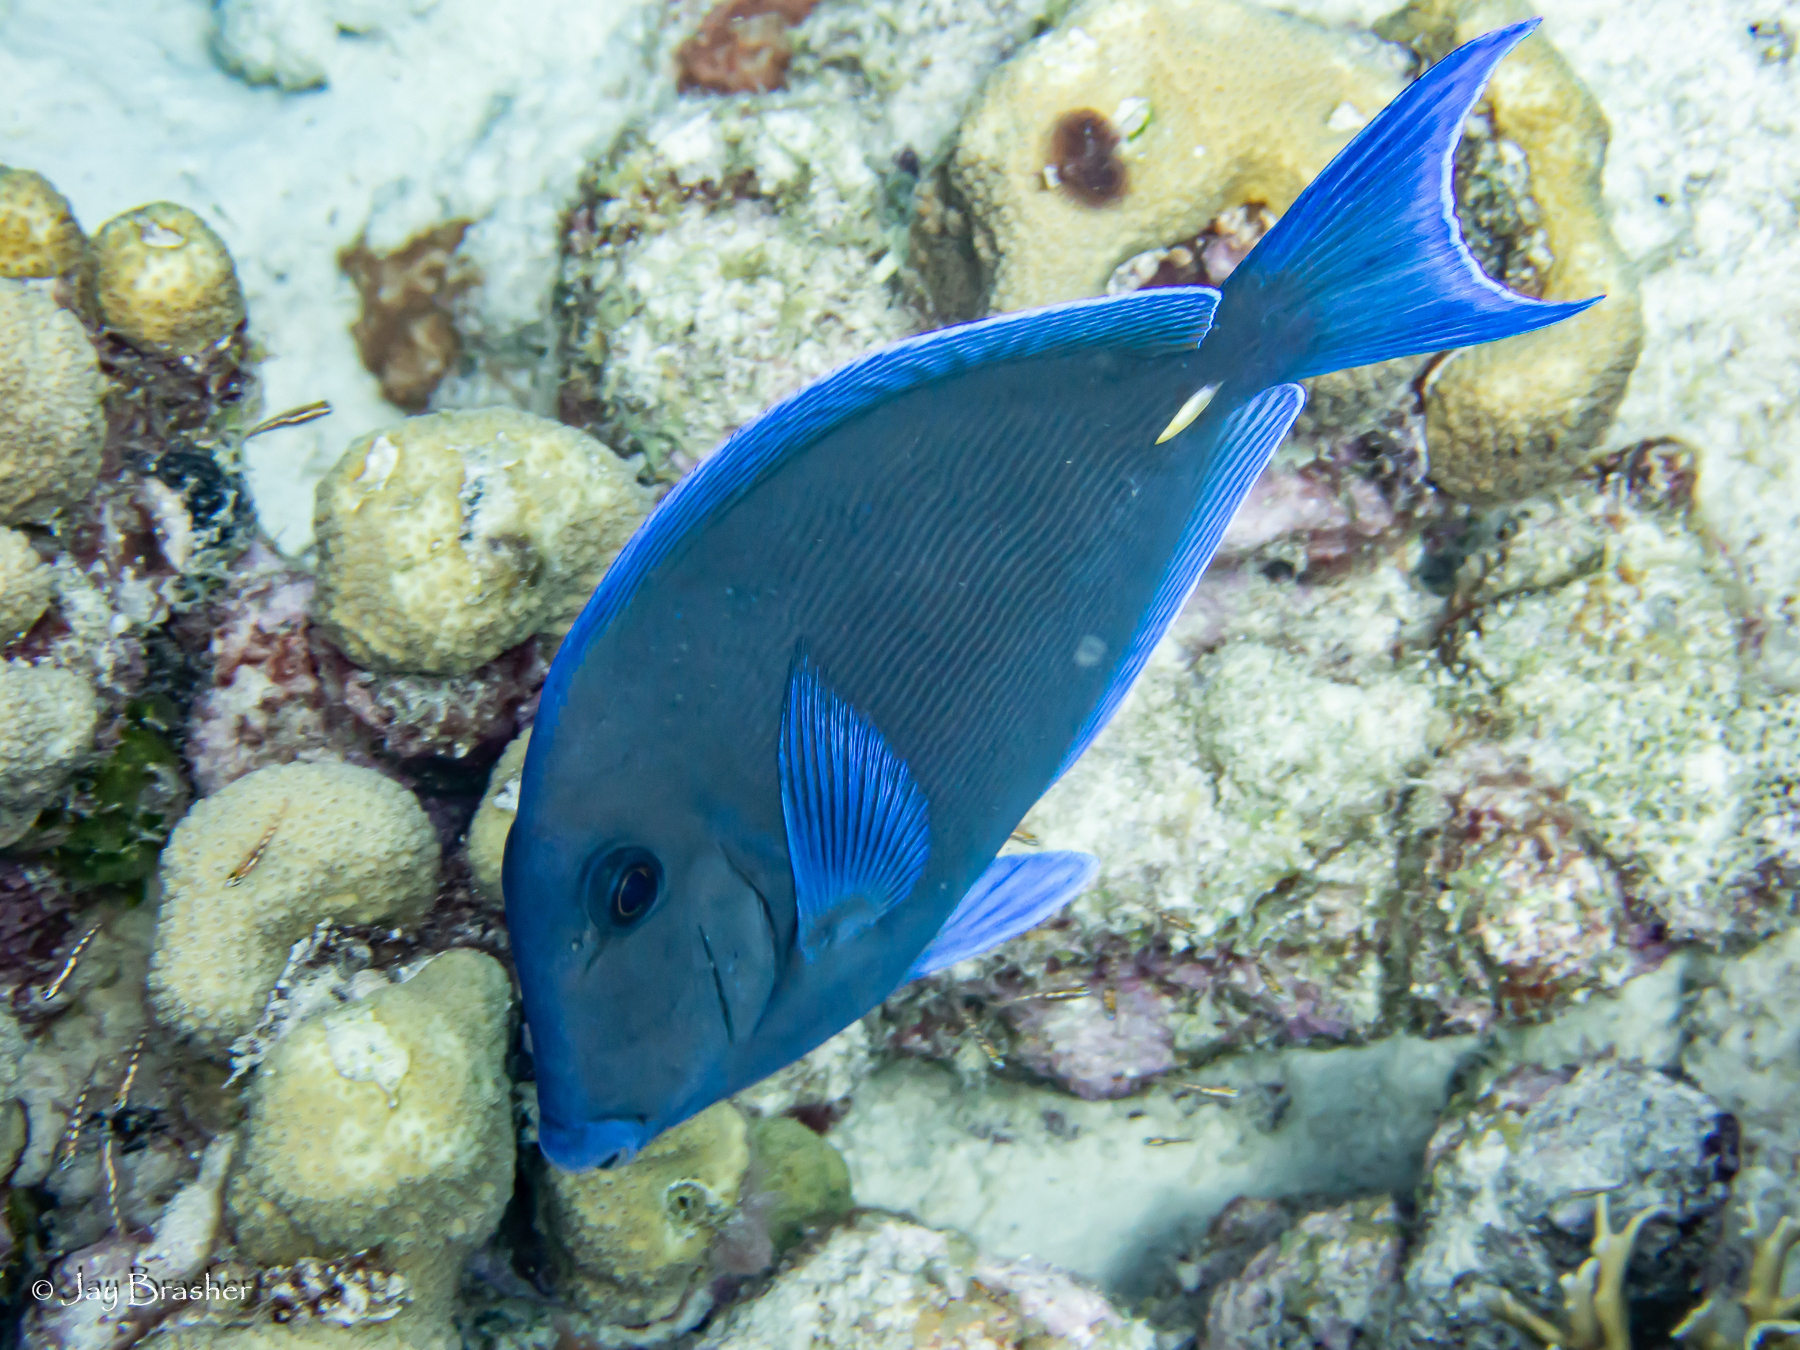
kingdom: Animalia
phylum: Chordata
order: Perciformes
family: Acanthuridae
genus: Acanthurus
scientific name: Acanthurus coeruleus
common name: Blue tang
